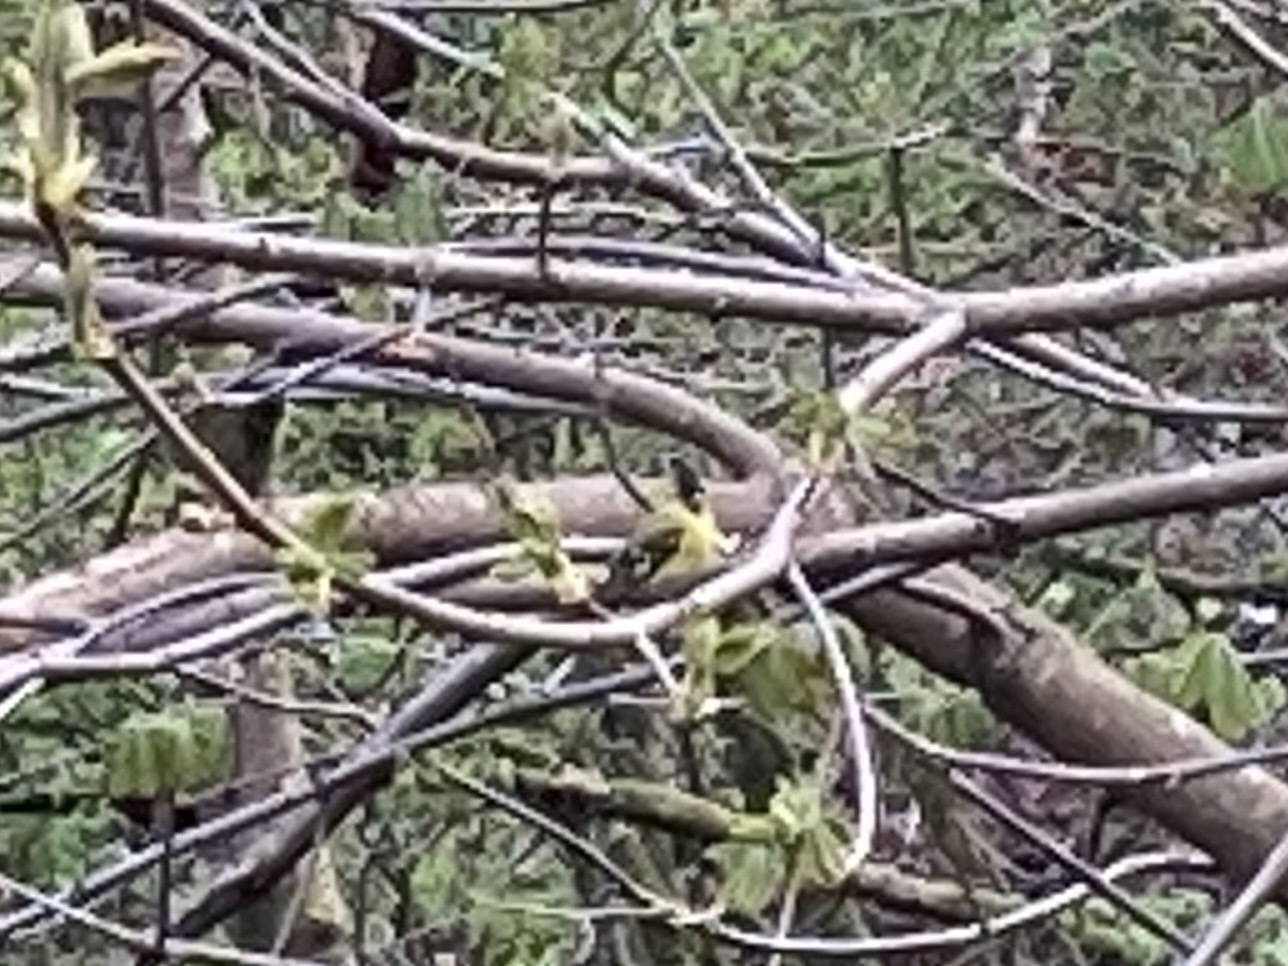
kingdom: Animalia
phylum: Chordata
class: Aves
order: Passeriformes
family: Fringillidae
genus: Spinus
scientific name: Spinus spinus
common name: Eurasian siskin
